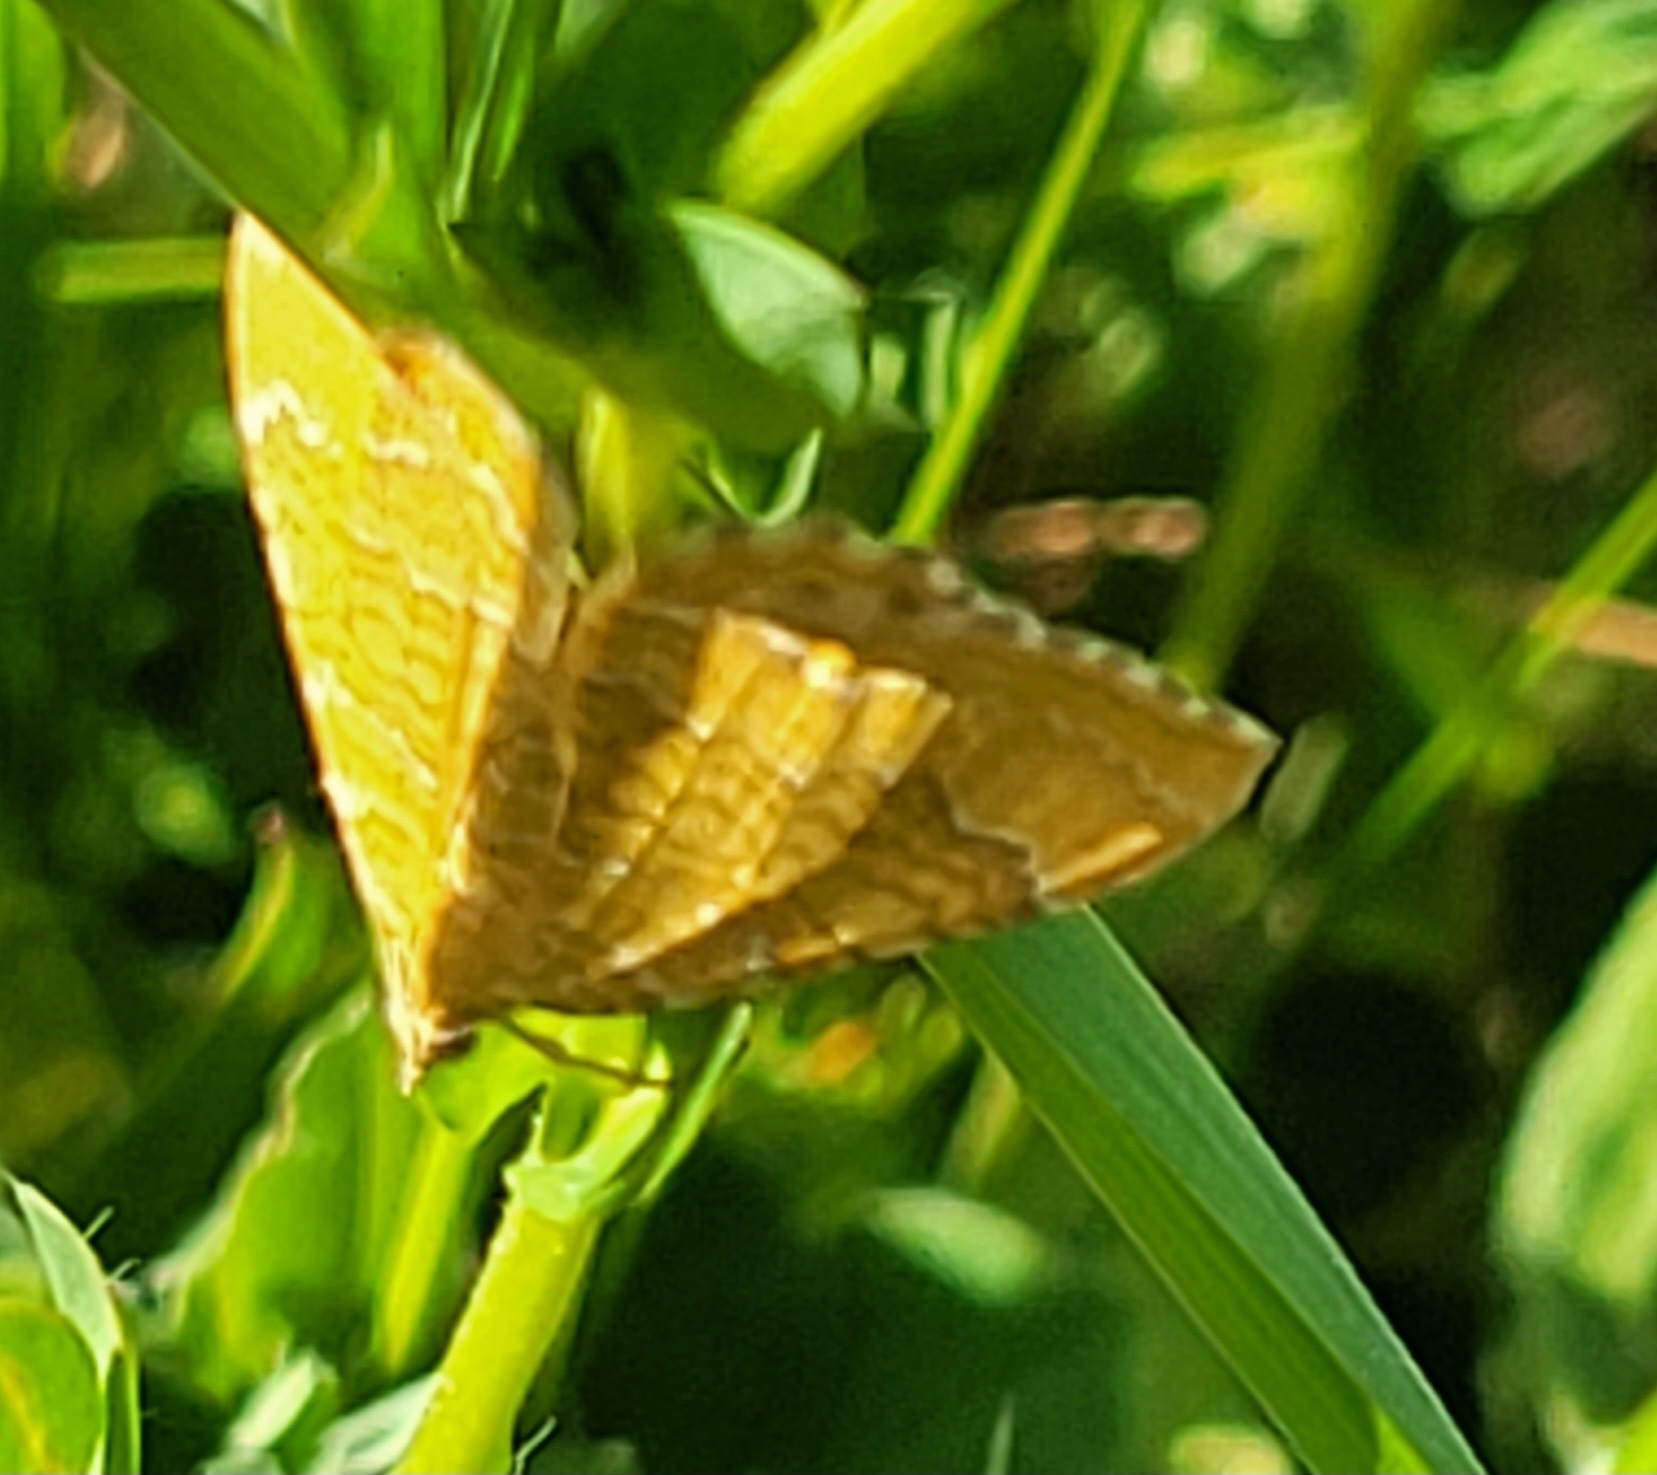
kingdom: Animalia
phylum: Arthropoda
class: Insecta
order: Lepidoptera
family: Geometridae
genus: Camptogramma
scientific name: Camptogramma bilineata
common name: Yellow shell
